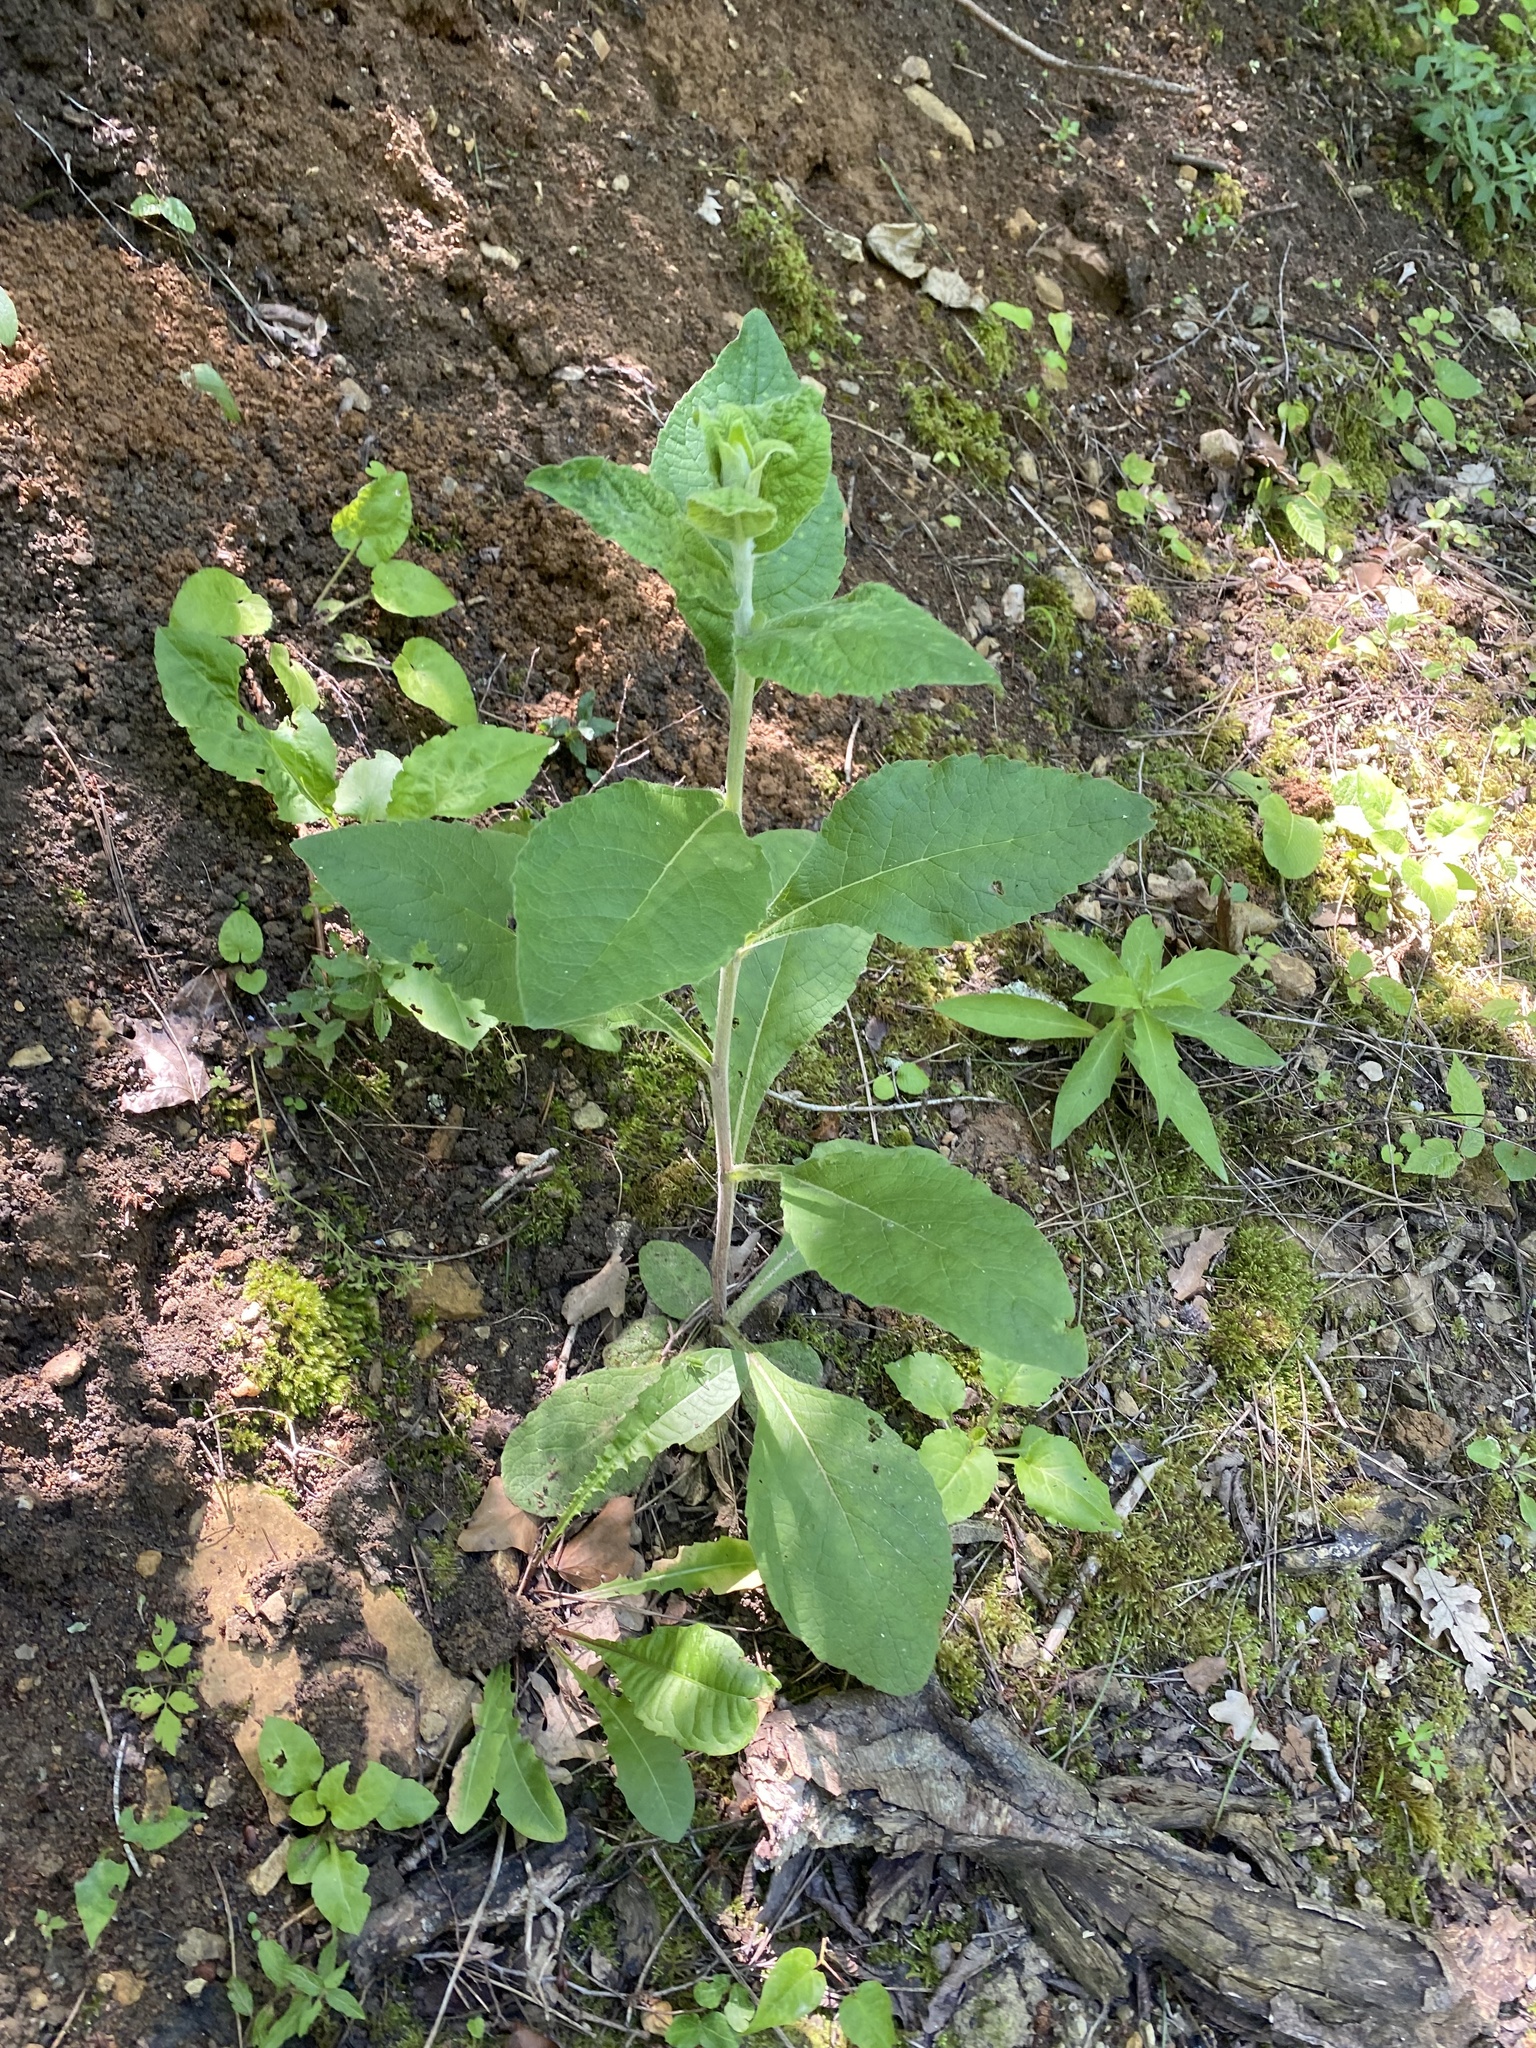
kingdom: Plantae
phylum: Tracheophyta
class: Magnoliopsida
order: Asterales
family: Asteraceae
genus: Pentanema
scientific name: Pentanema squarrosum
